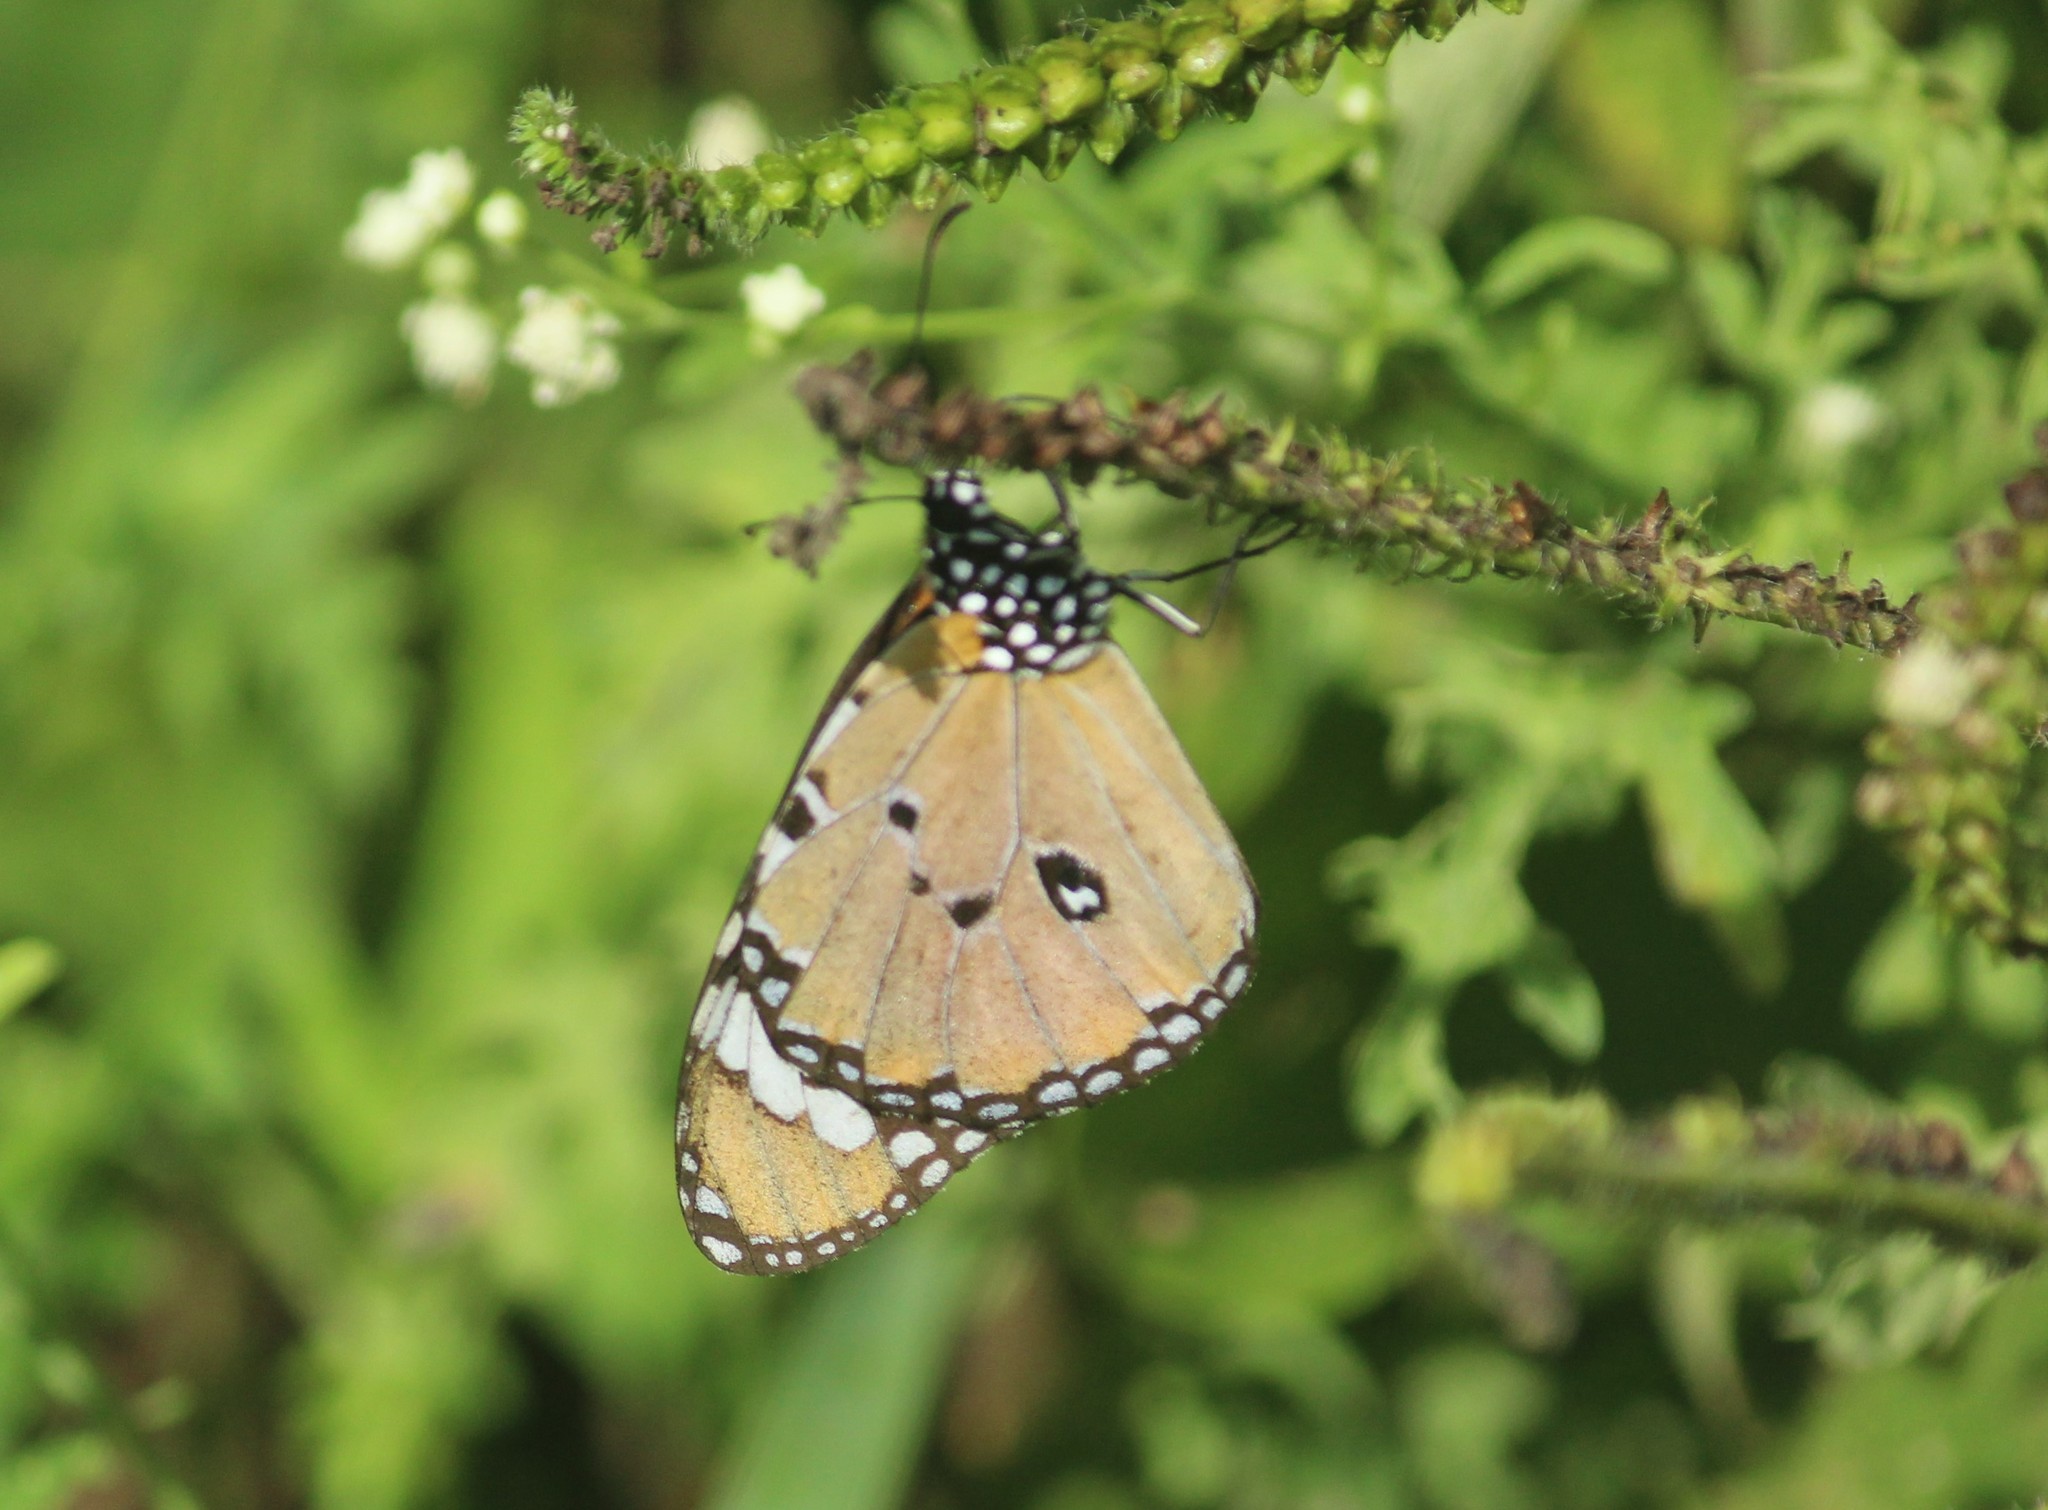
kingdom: Animalia
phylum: Arthropoda
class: Insecta
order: Lepidoptera
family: Nymphalidae
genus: Danaus
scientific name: Danaus chrysippus
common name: Plain tiger
